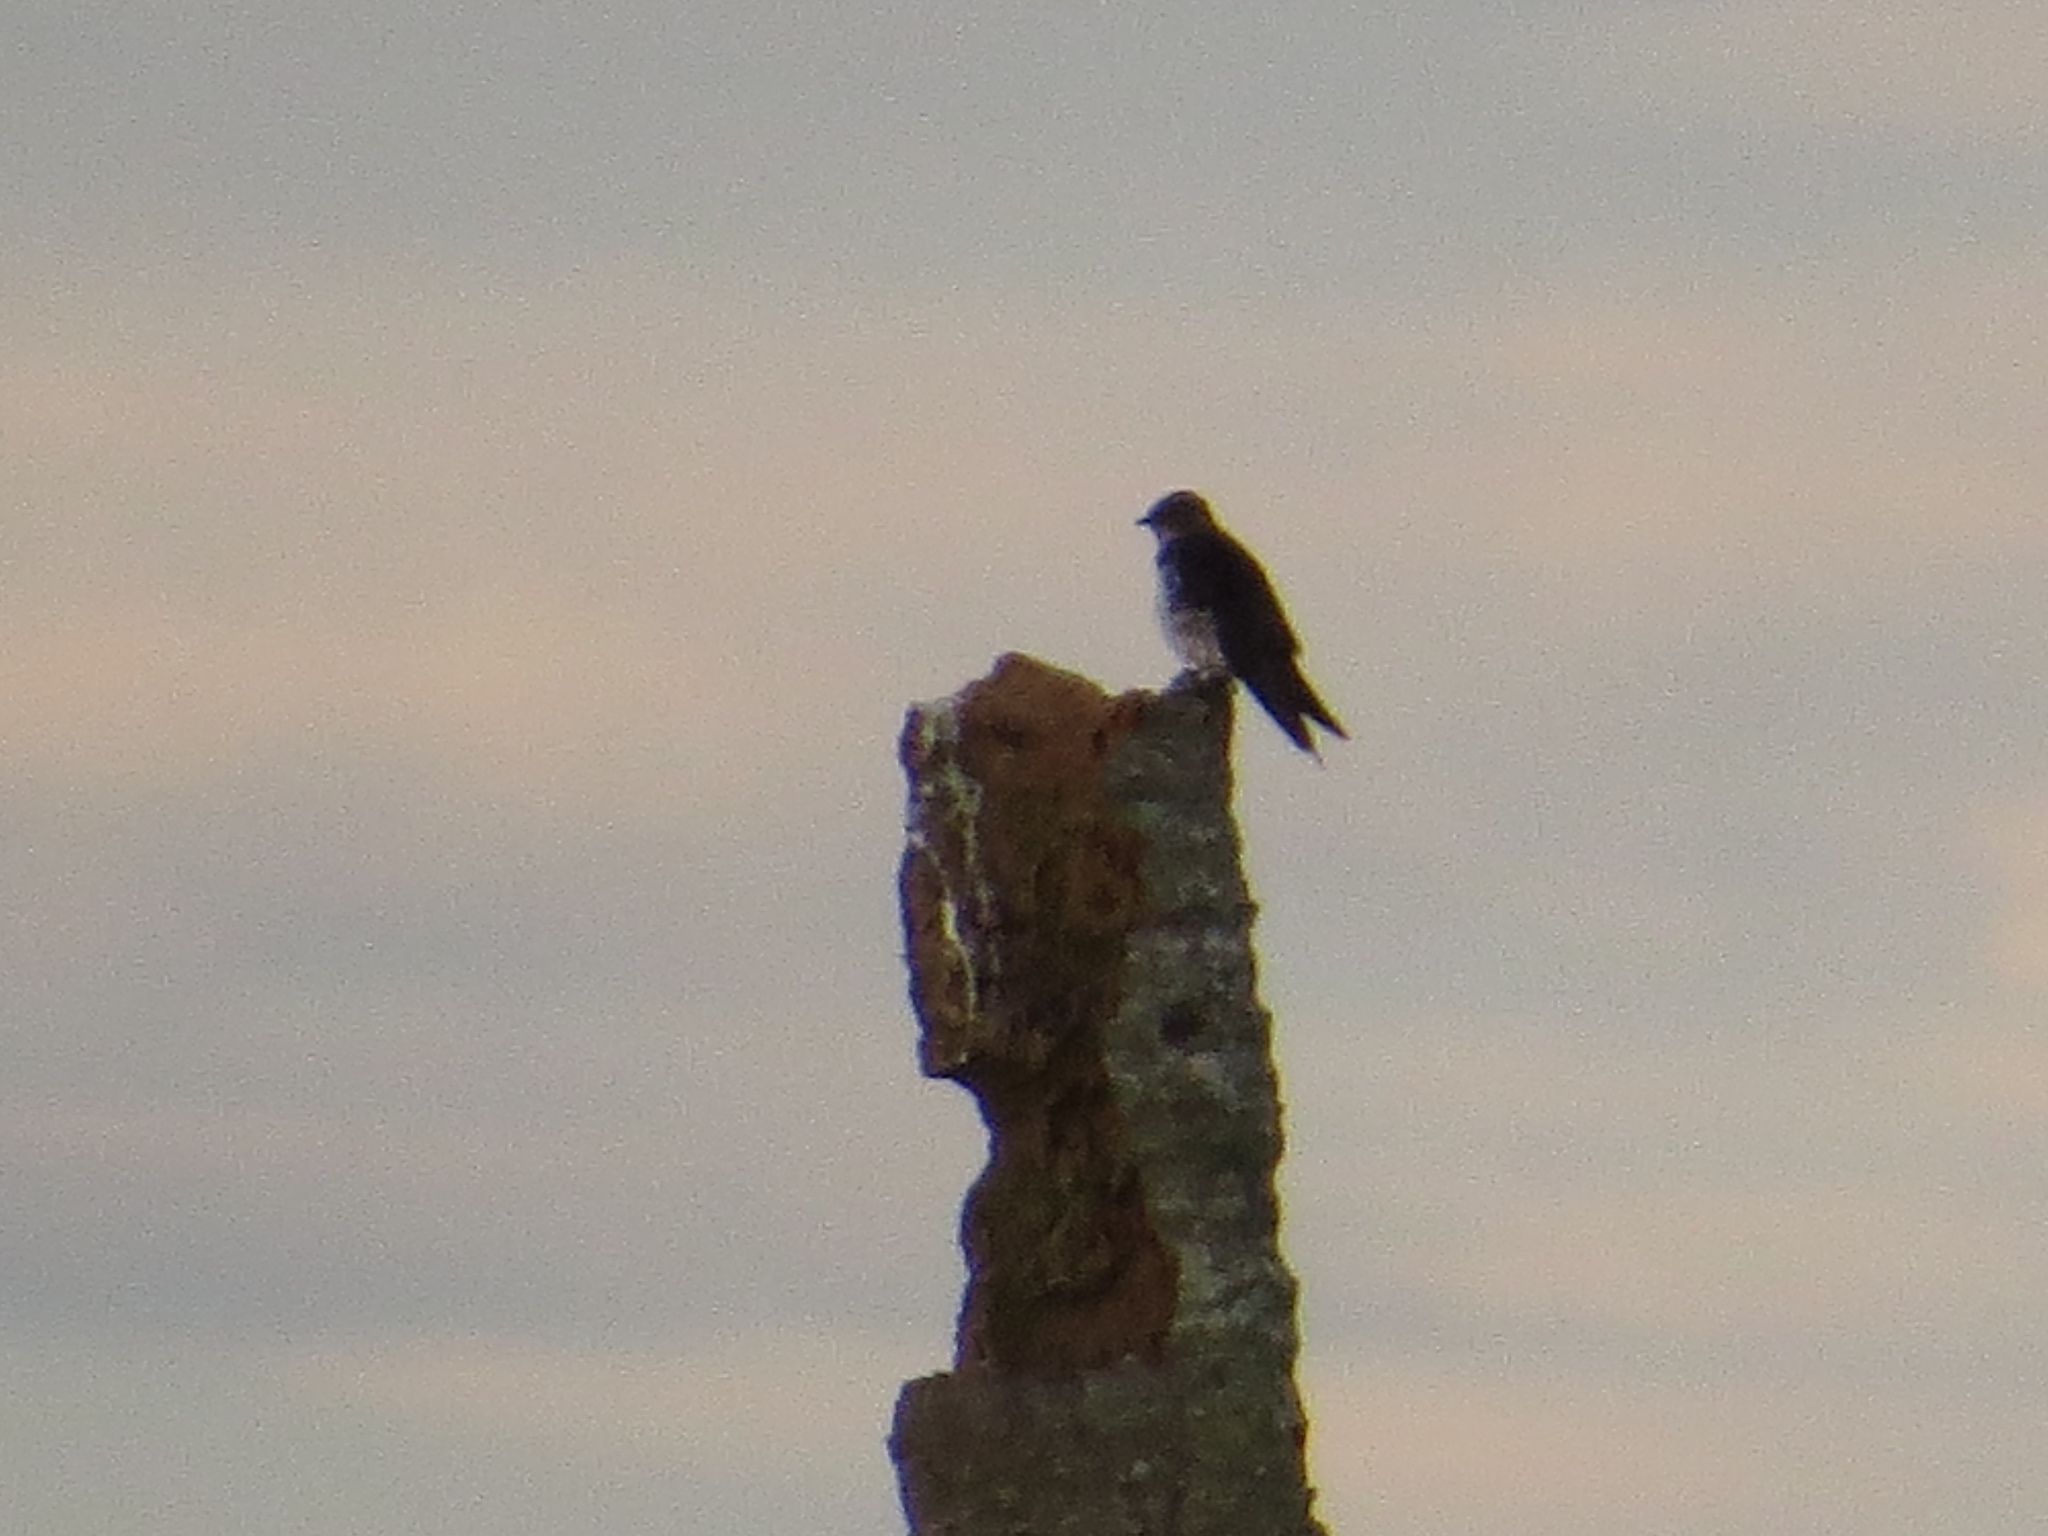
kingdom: Animalia
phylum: Chordata
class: Aves
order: Passeriformes
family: Hirundinidae
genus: Progne
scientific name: Progne chalybea
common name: Grey-breasted martin
